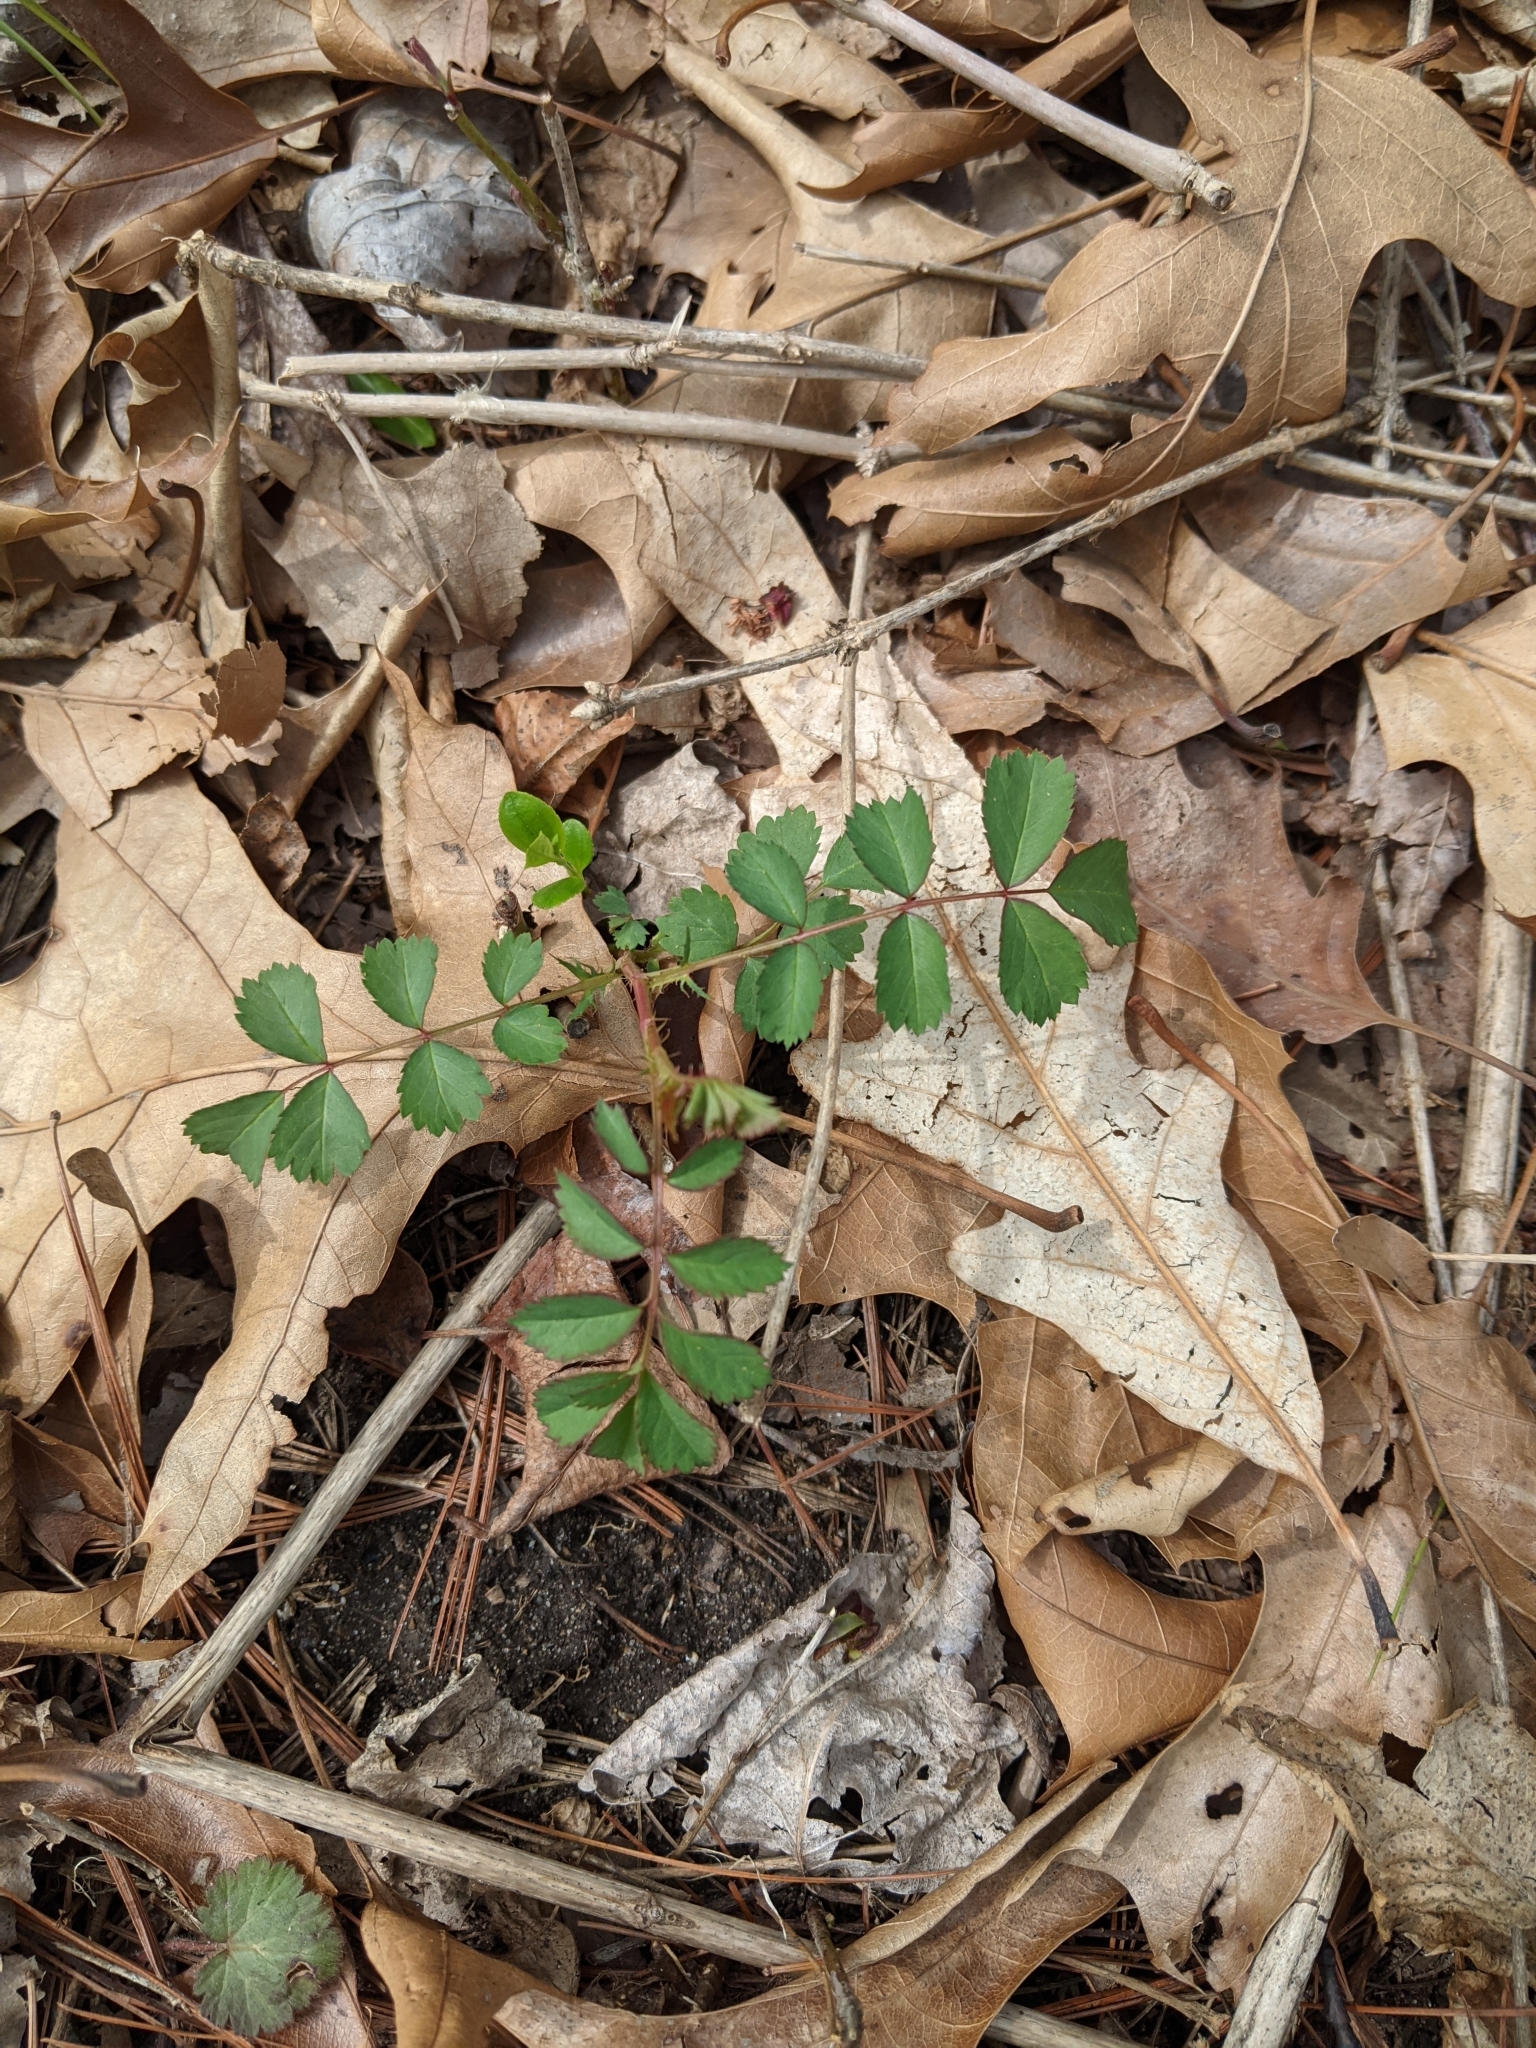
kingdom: Plantae
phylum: Tracheophyta
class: Magnoliopsida
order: Rosales
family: Rosaceae
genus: Rosa
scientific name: Rosa multiflora
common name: Multiflora rose
